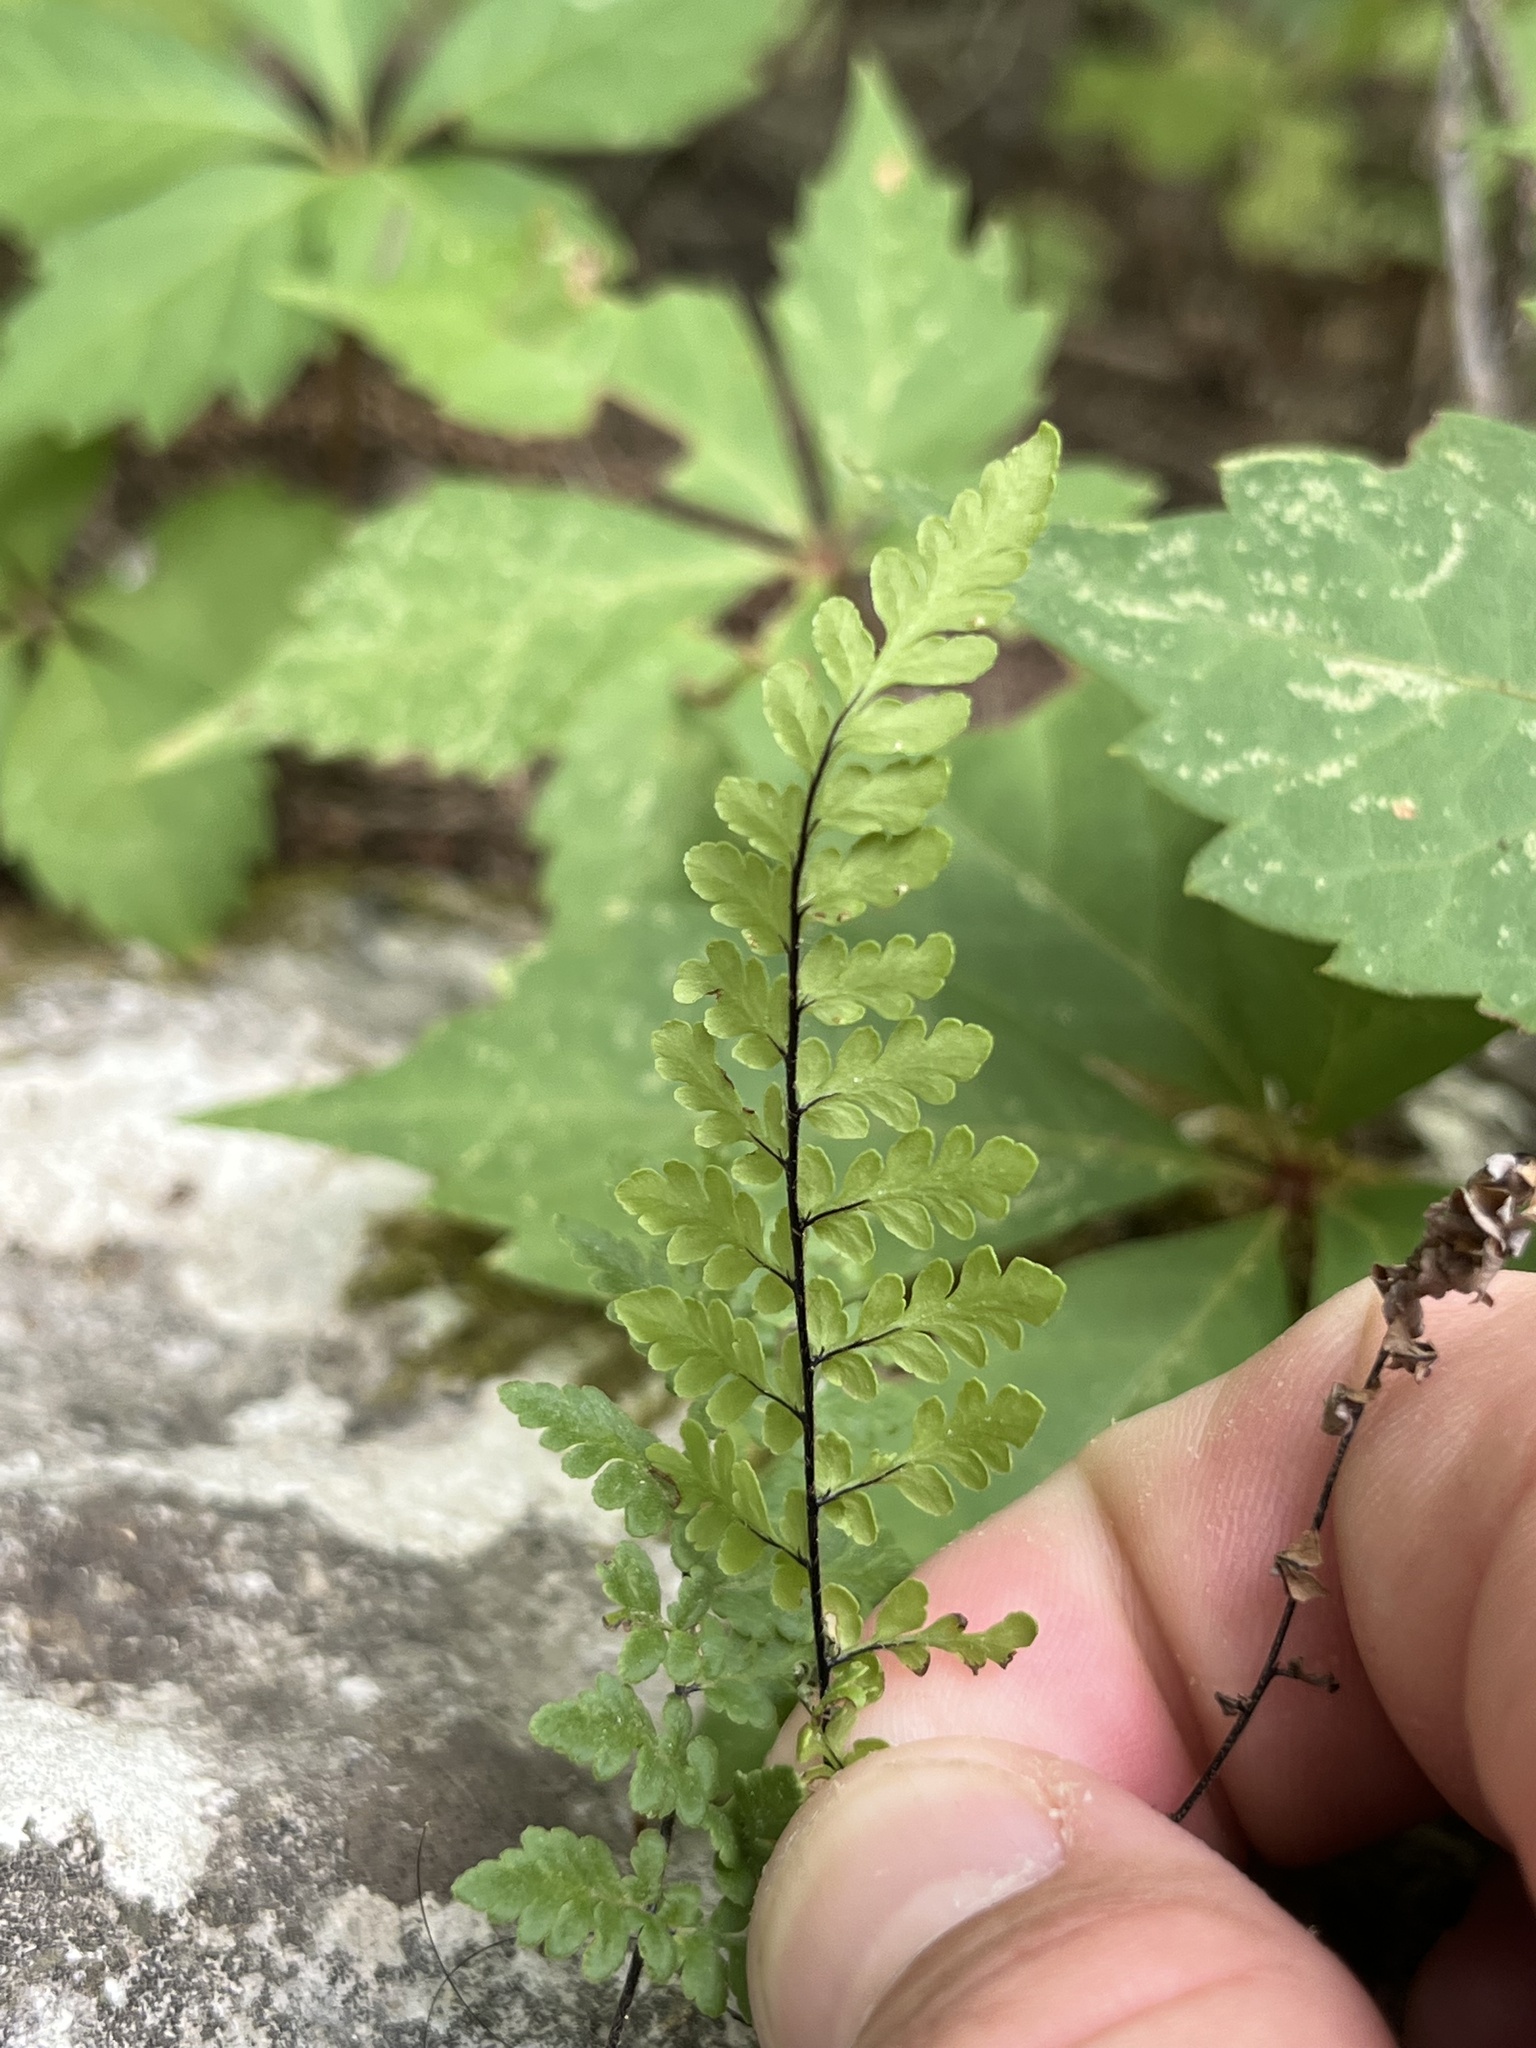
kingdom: Plantae
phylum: Tracheophyta
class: Polypodiopsida
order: Polypodiales
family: Pteridaceae
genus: Myriopteris
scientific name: Myriopteris alabamensis
